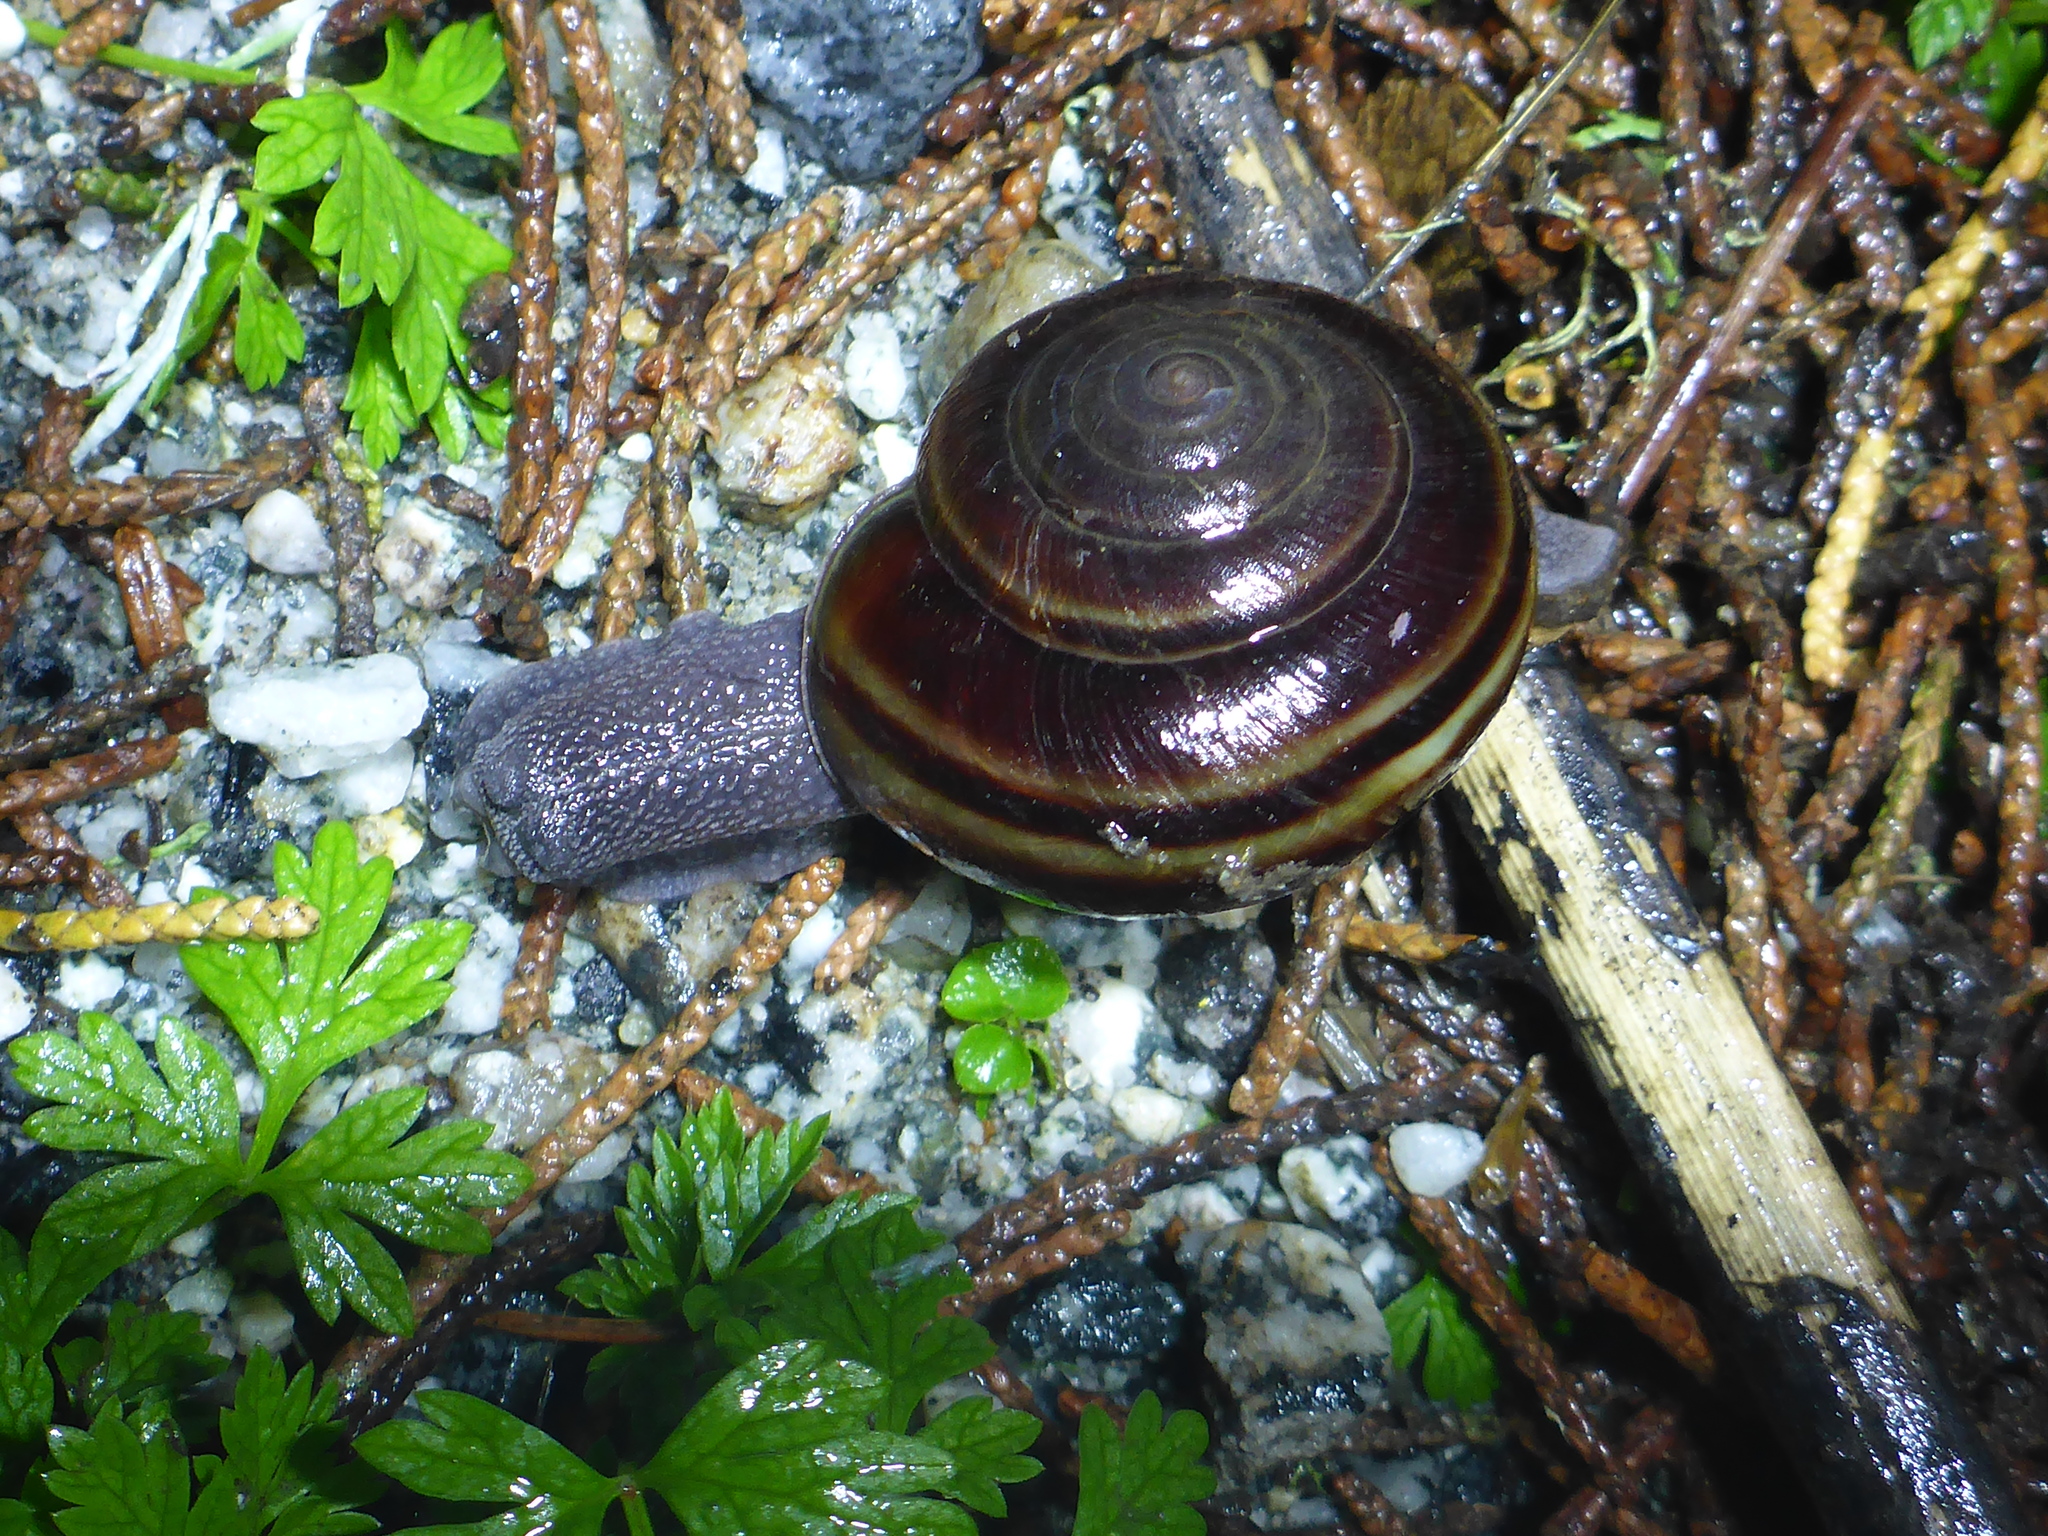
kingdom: Animalia
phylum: Mollusca
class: Gastropoda
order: Stylommatophora
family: Xanthonychidae
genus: Helminthoglypta
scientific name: Helminthoglypta sequoicola
